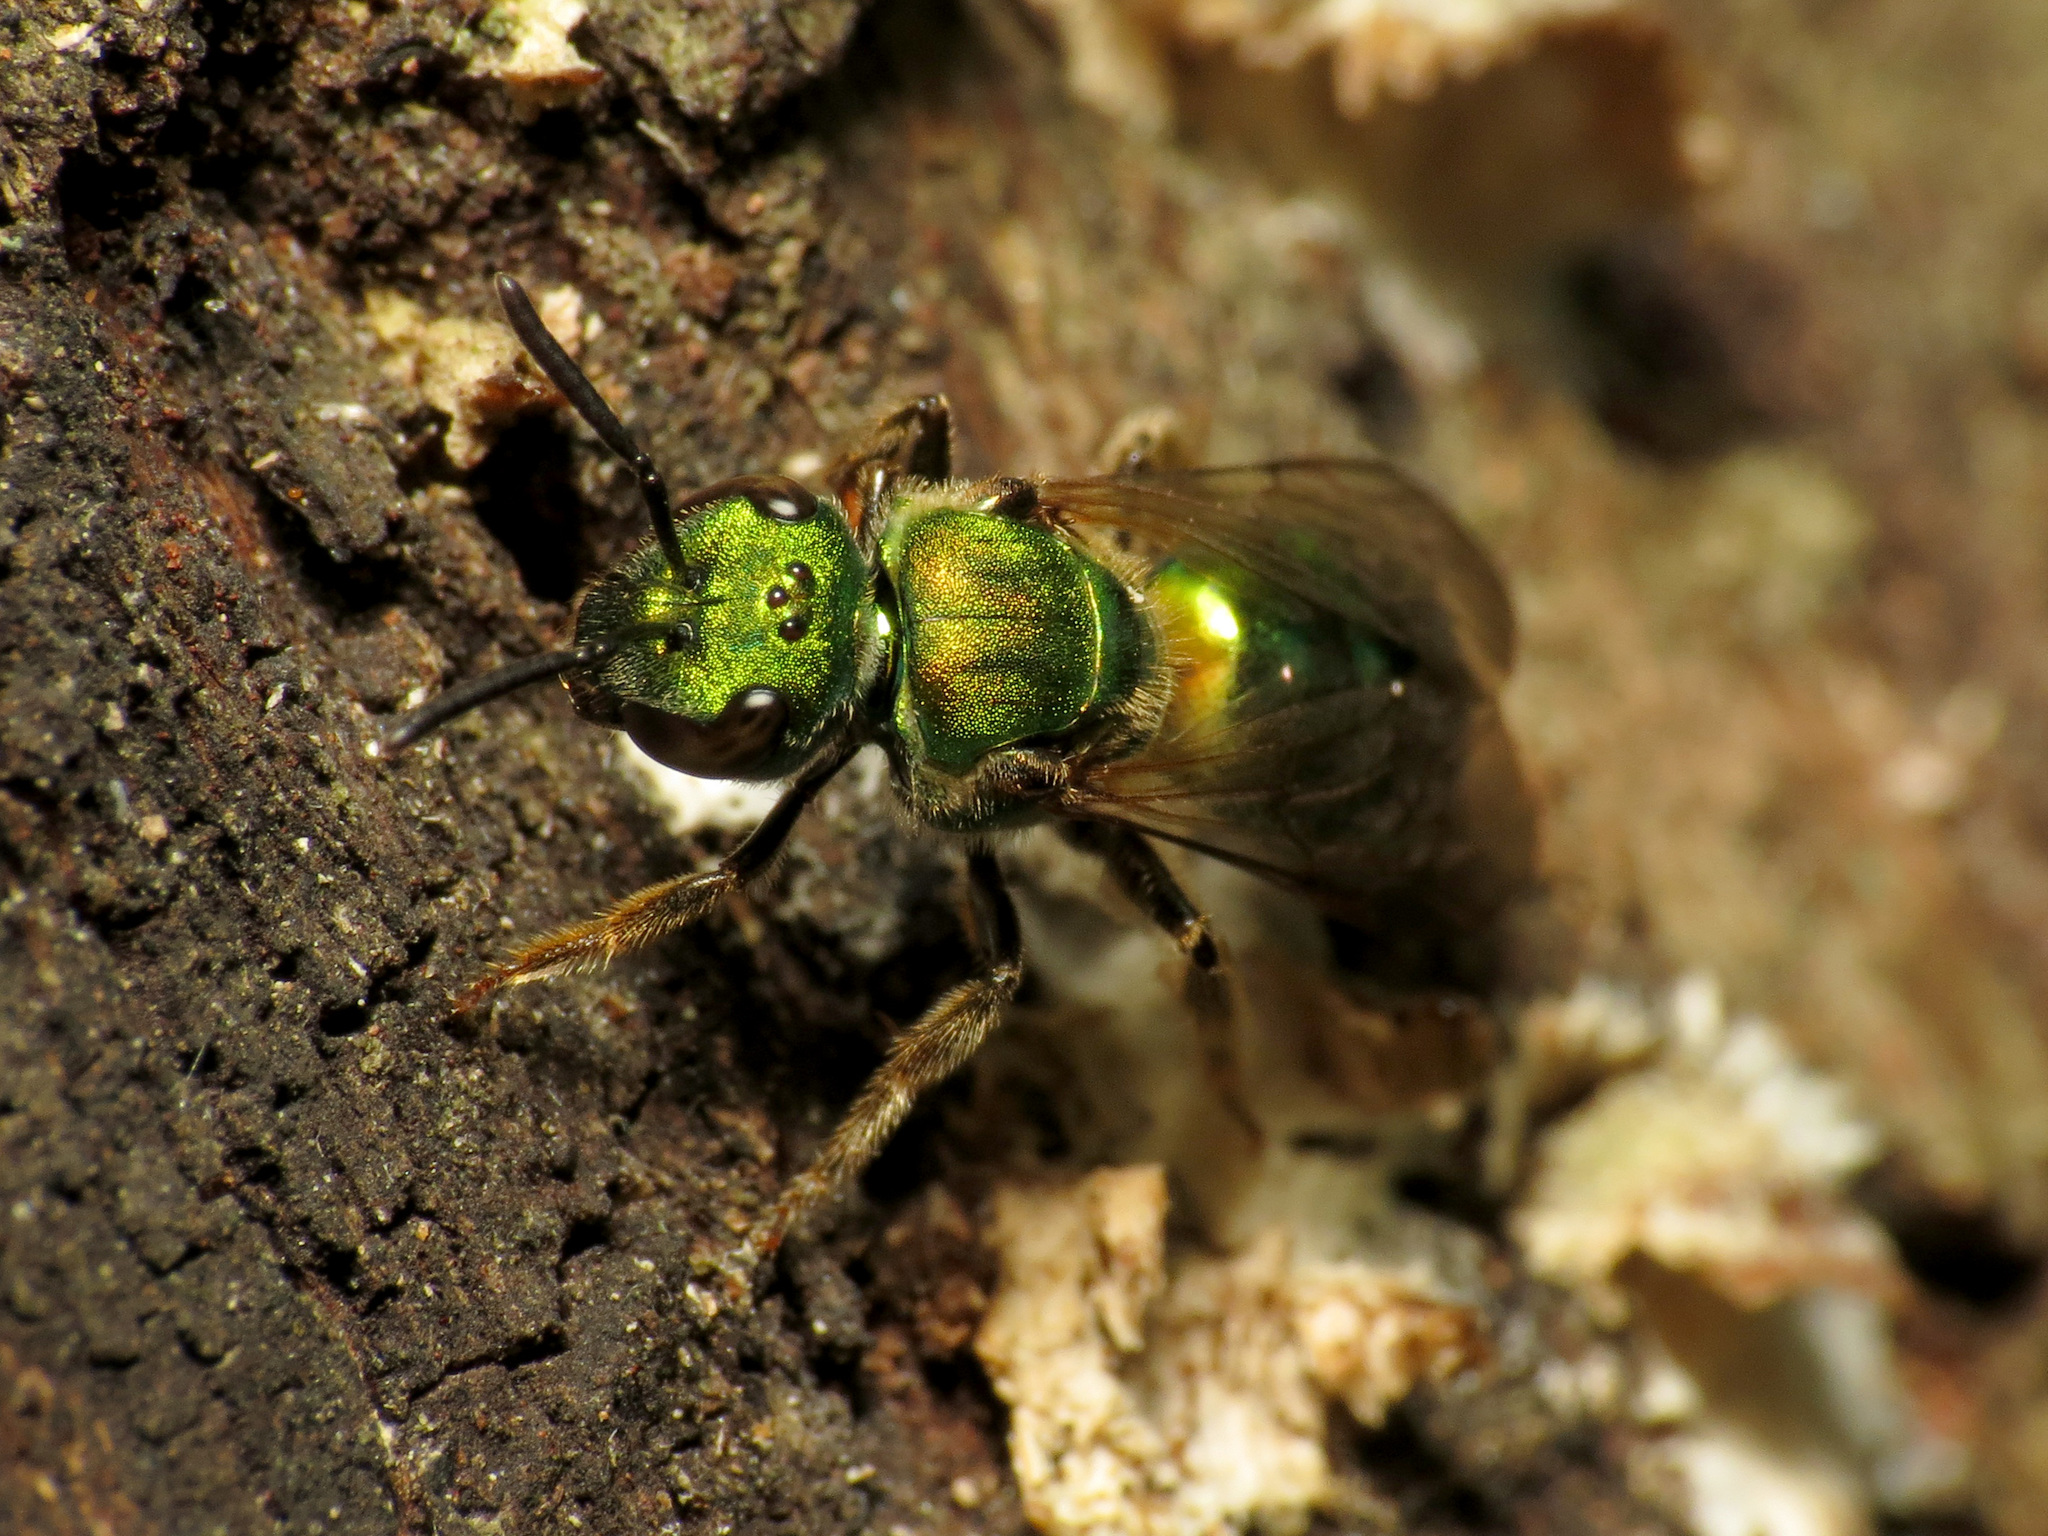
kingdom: Animalia
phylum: Arthropoda
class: Insecta
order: Hymenoptera
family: Halictidae
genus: Augochlora
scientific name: Augochlora pura
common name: Pure green sweat bee
